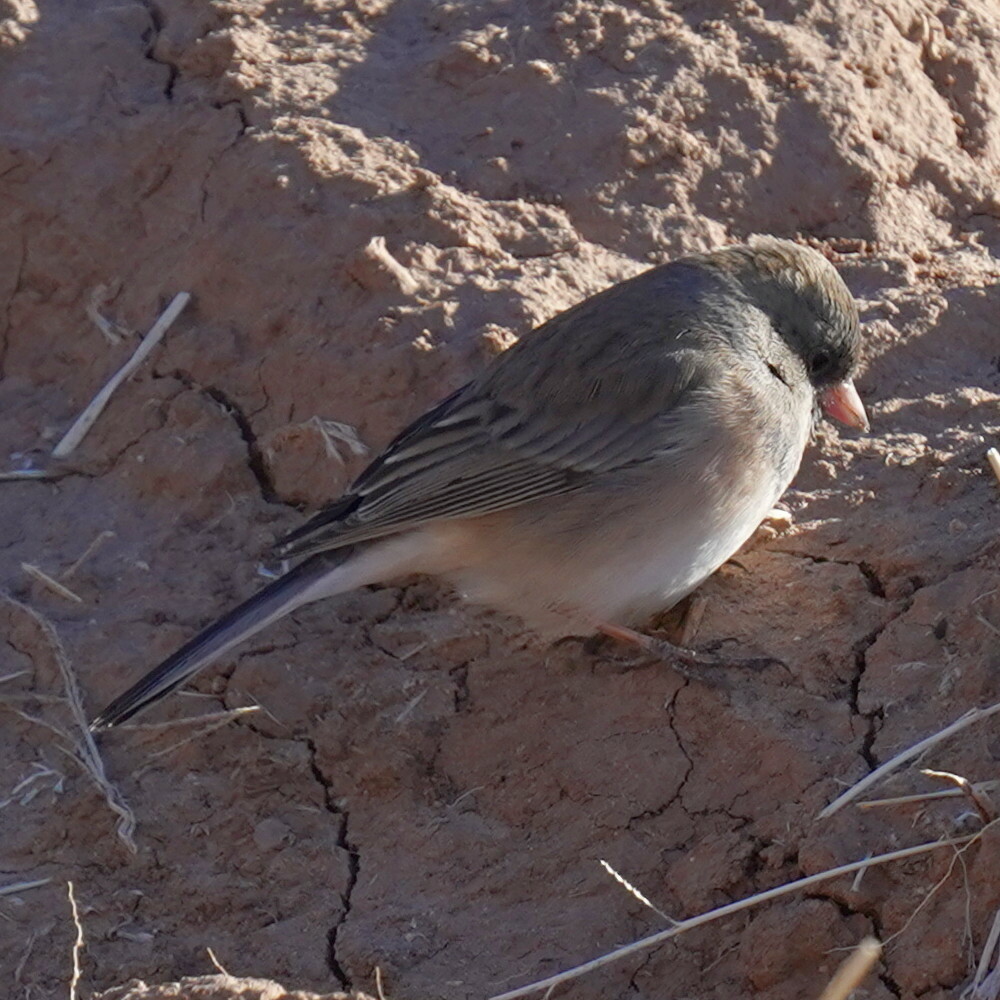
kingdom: Animalia
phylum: Chordata
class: Aves
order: Passeriformes
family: Passerellidae
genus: Junco
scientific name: Junco hyemalis
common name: Dark-eyed junco
